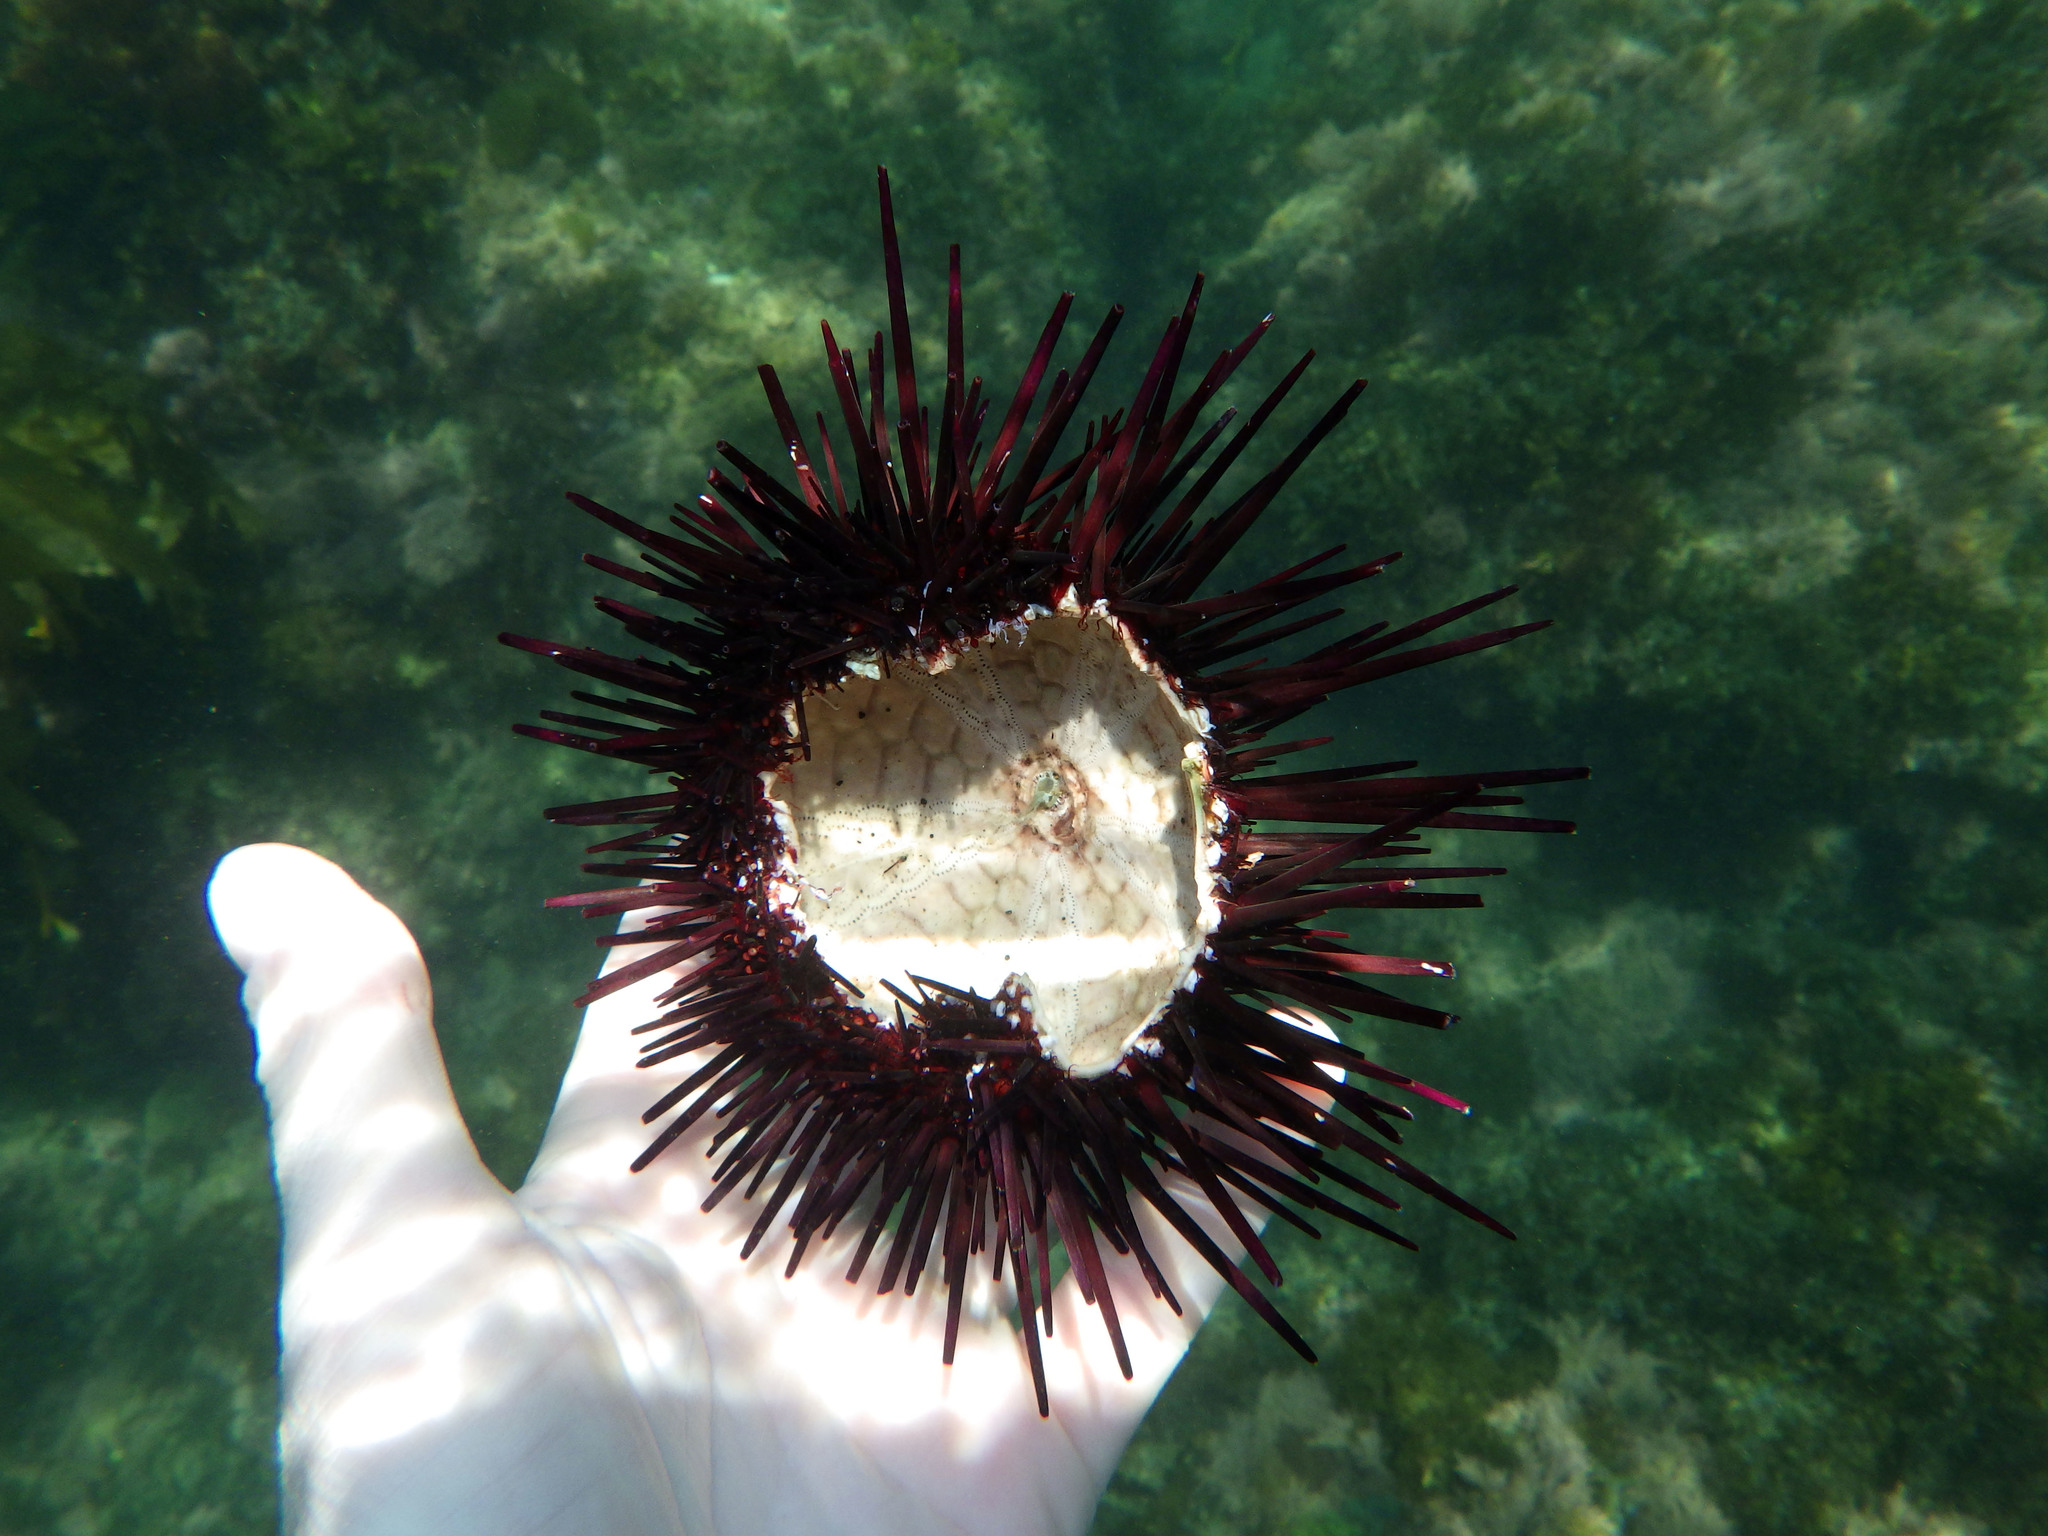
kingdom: Animalia
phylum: Echinodermata
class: Echinoidea
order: Camarodonta
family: Strongylocentrotidae
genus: Mesocentrotus
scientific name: Mesocentrotus franciscanus
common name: Red sea urchin
